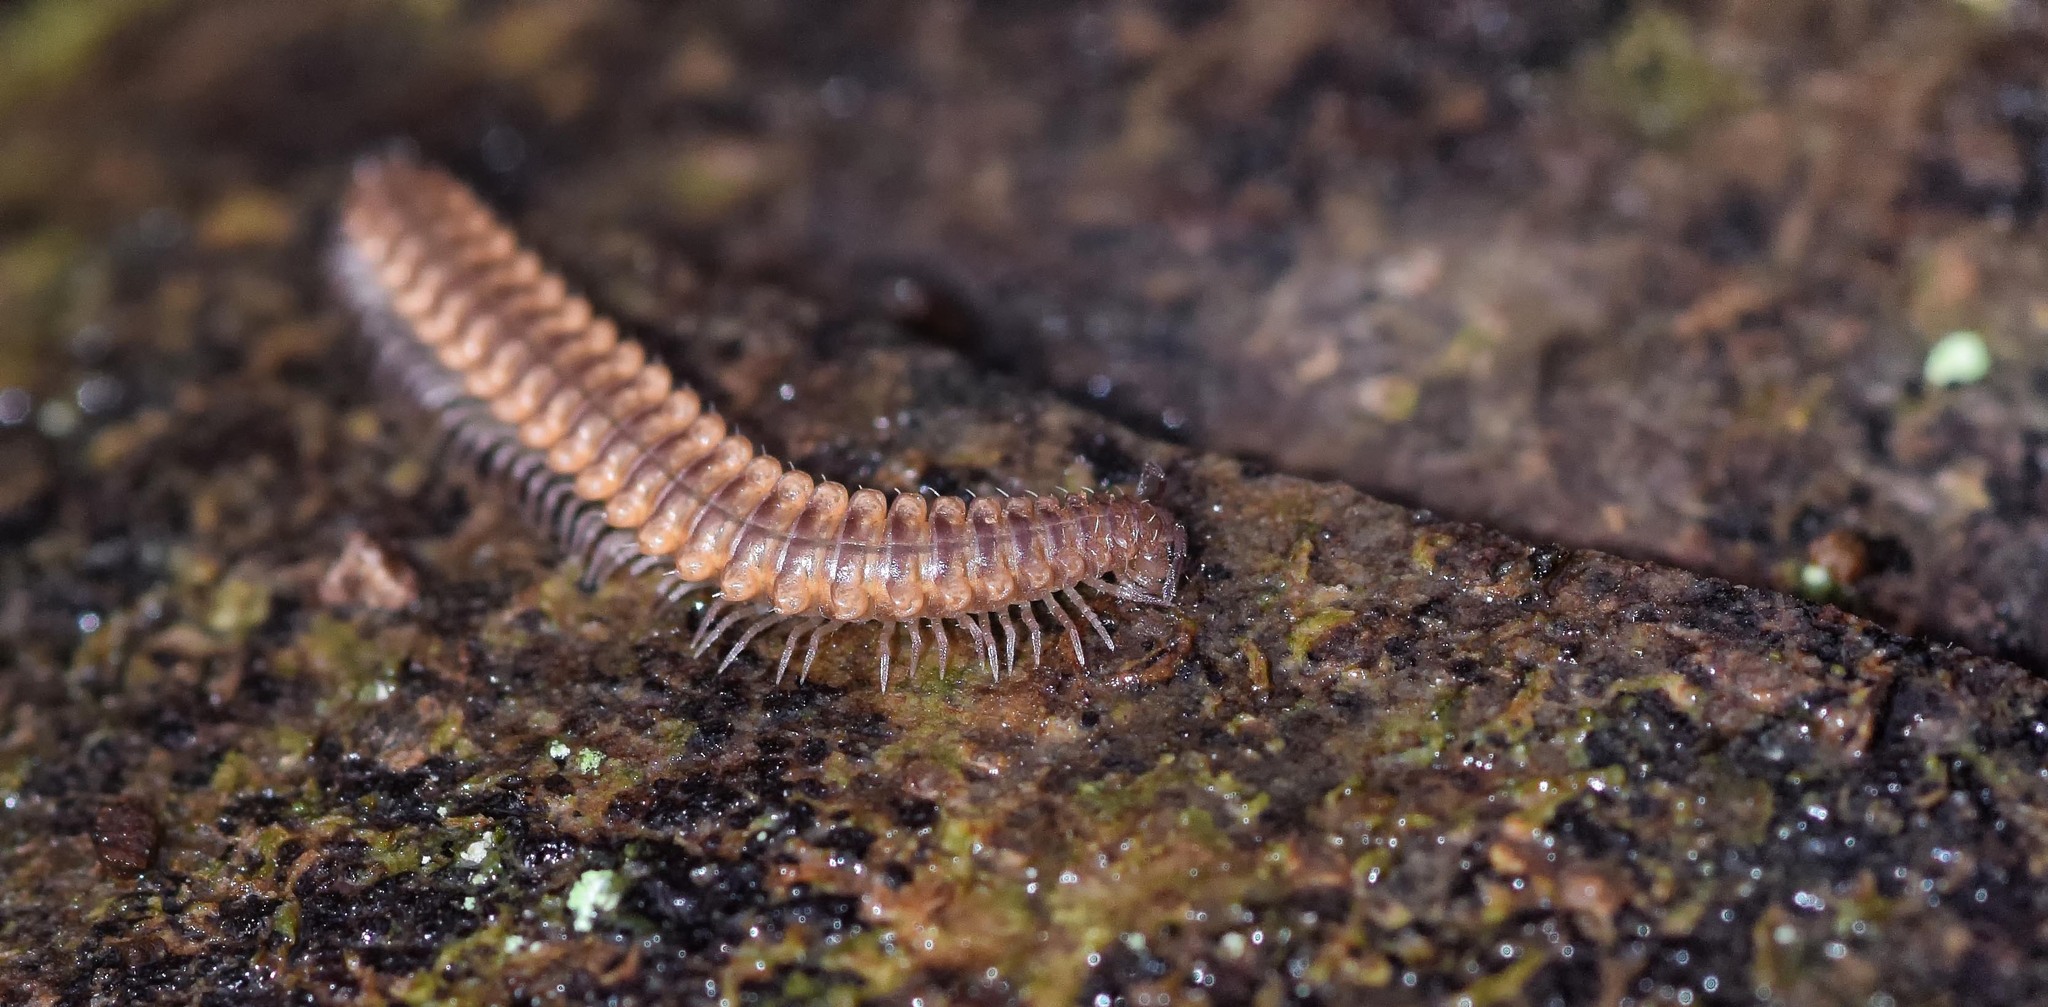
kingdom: Animalia
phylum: Arthropoda
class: Diplopoda
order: Chordeumatida
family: Craspedosomatidae
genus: Nanogona
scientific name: Nanogona polydesmoides
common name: Eyed flat-backed millipede
